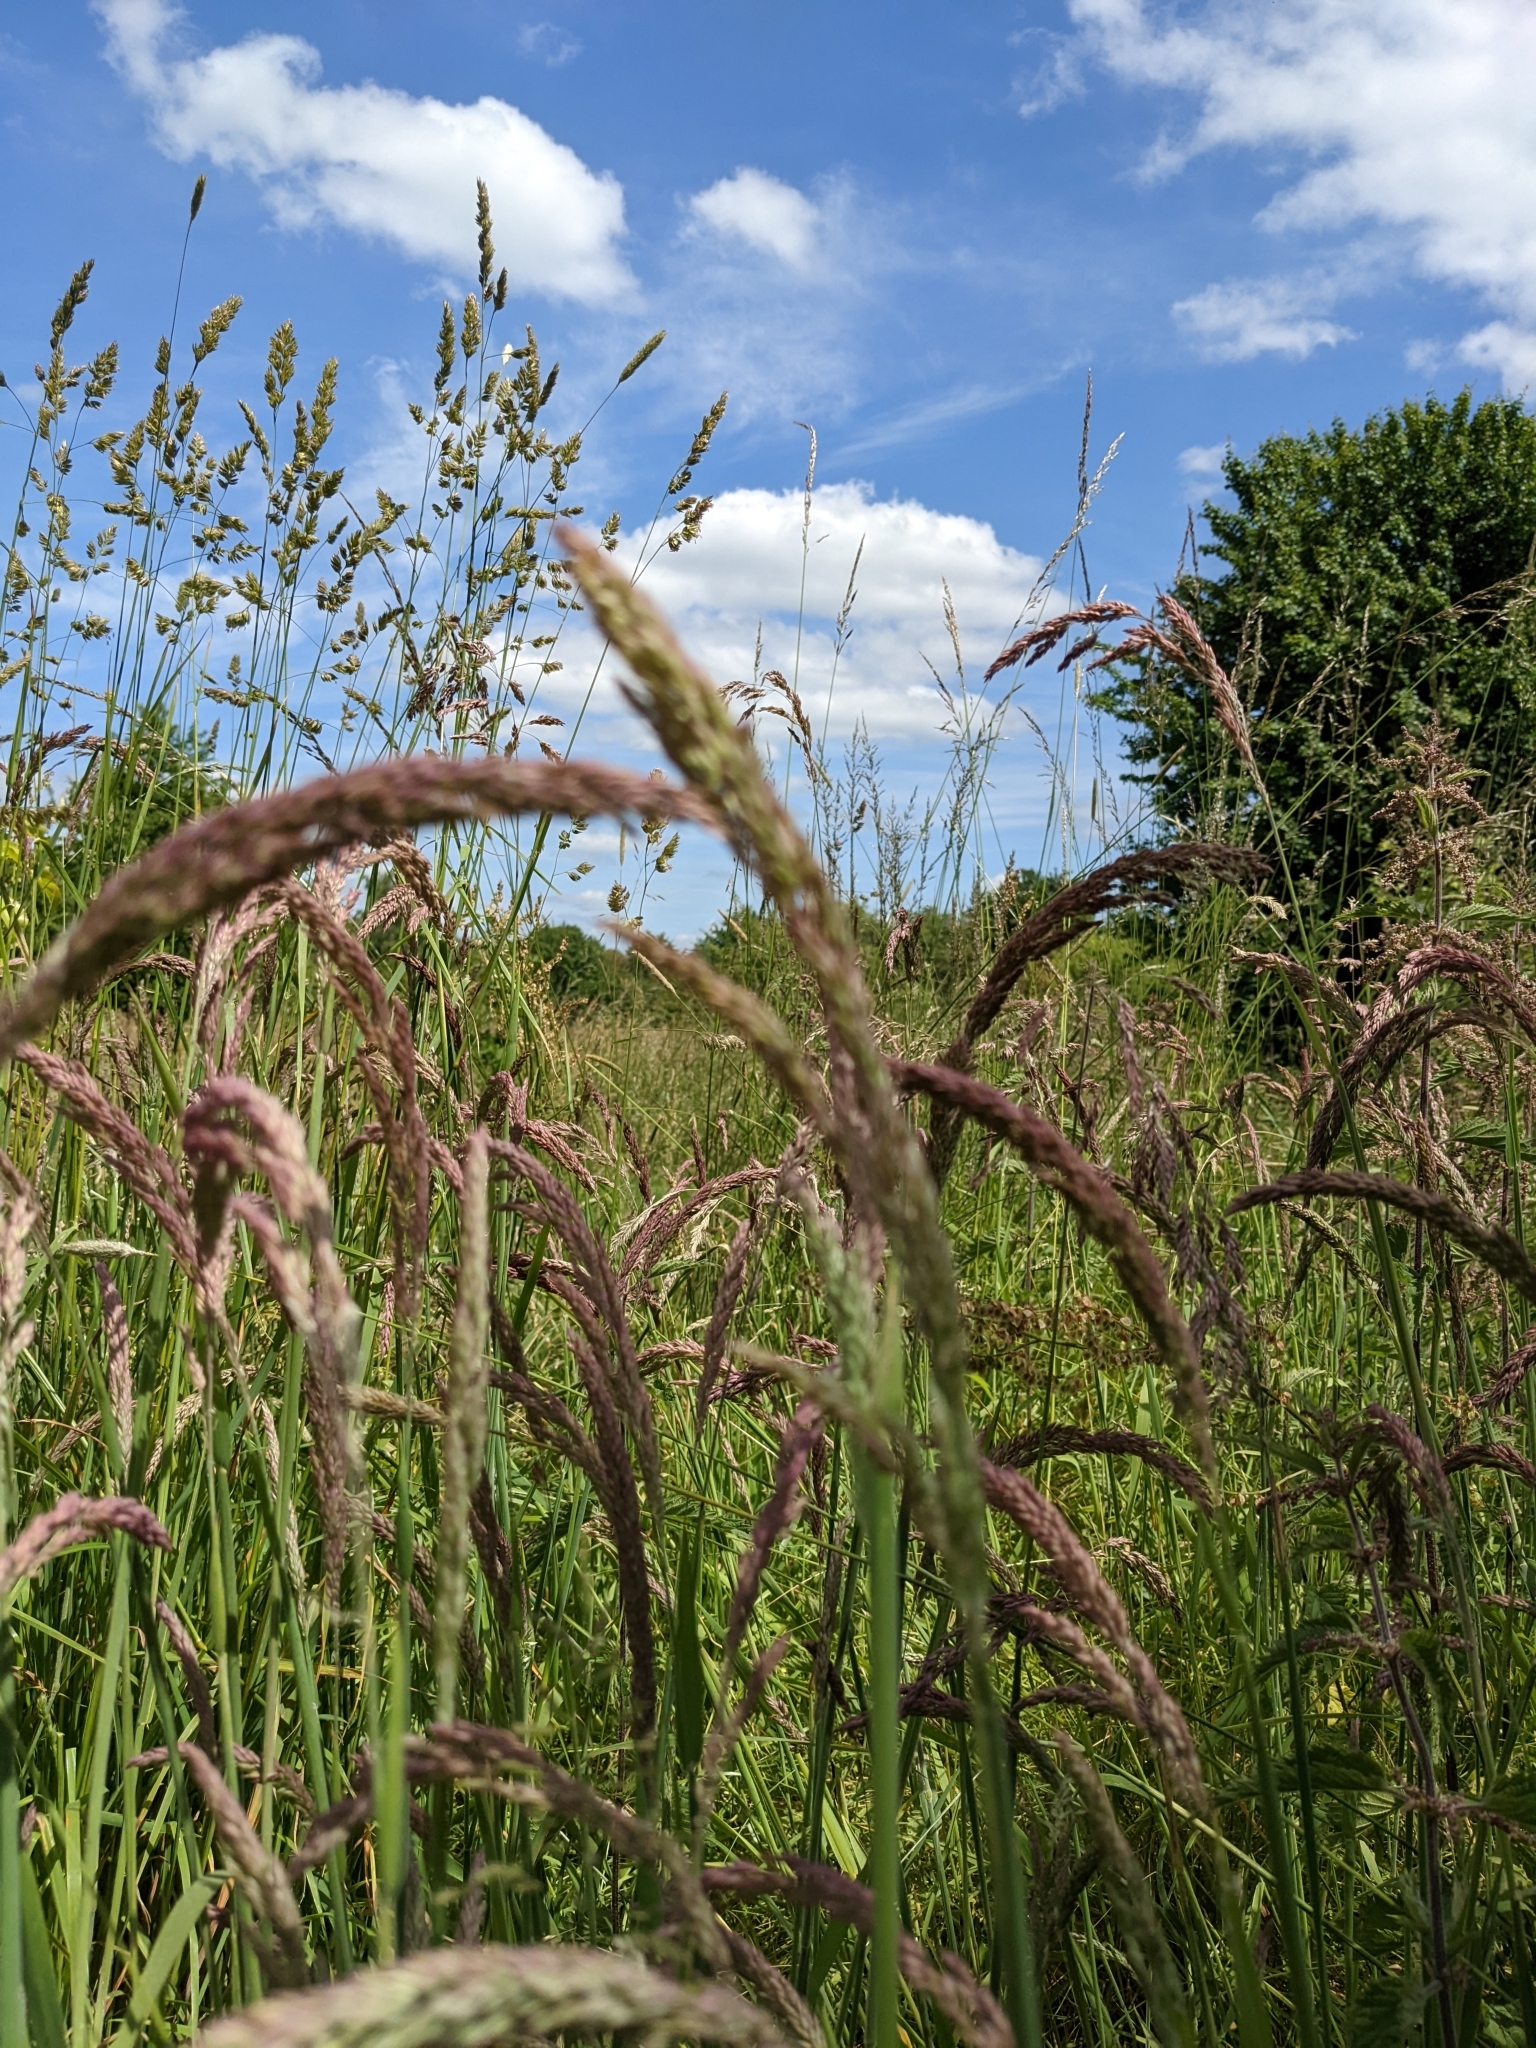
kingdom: Plantae
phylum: Tracheophyta
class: Liliopsida
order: Poales
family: Poaceae
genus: Holcus
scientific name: Holcus lanatus
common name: Yorkshire-fog
